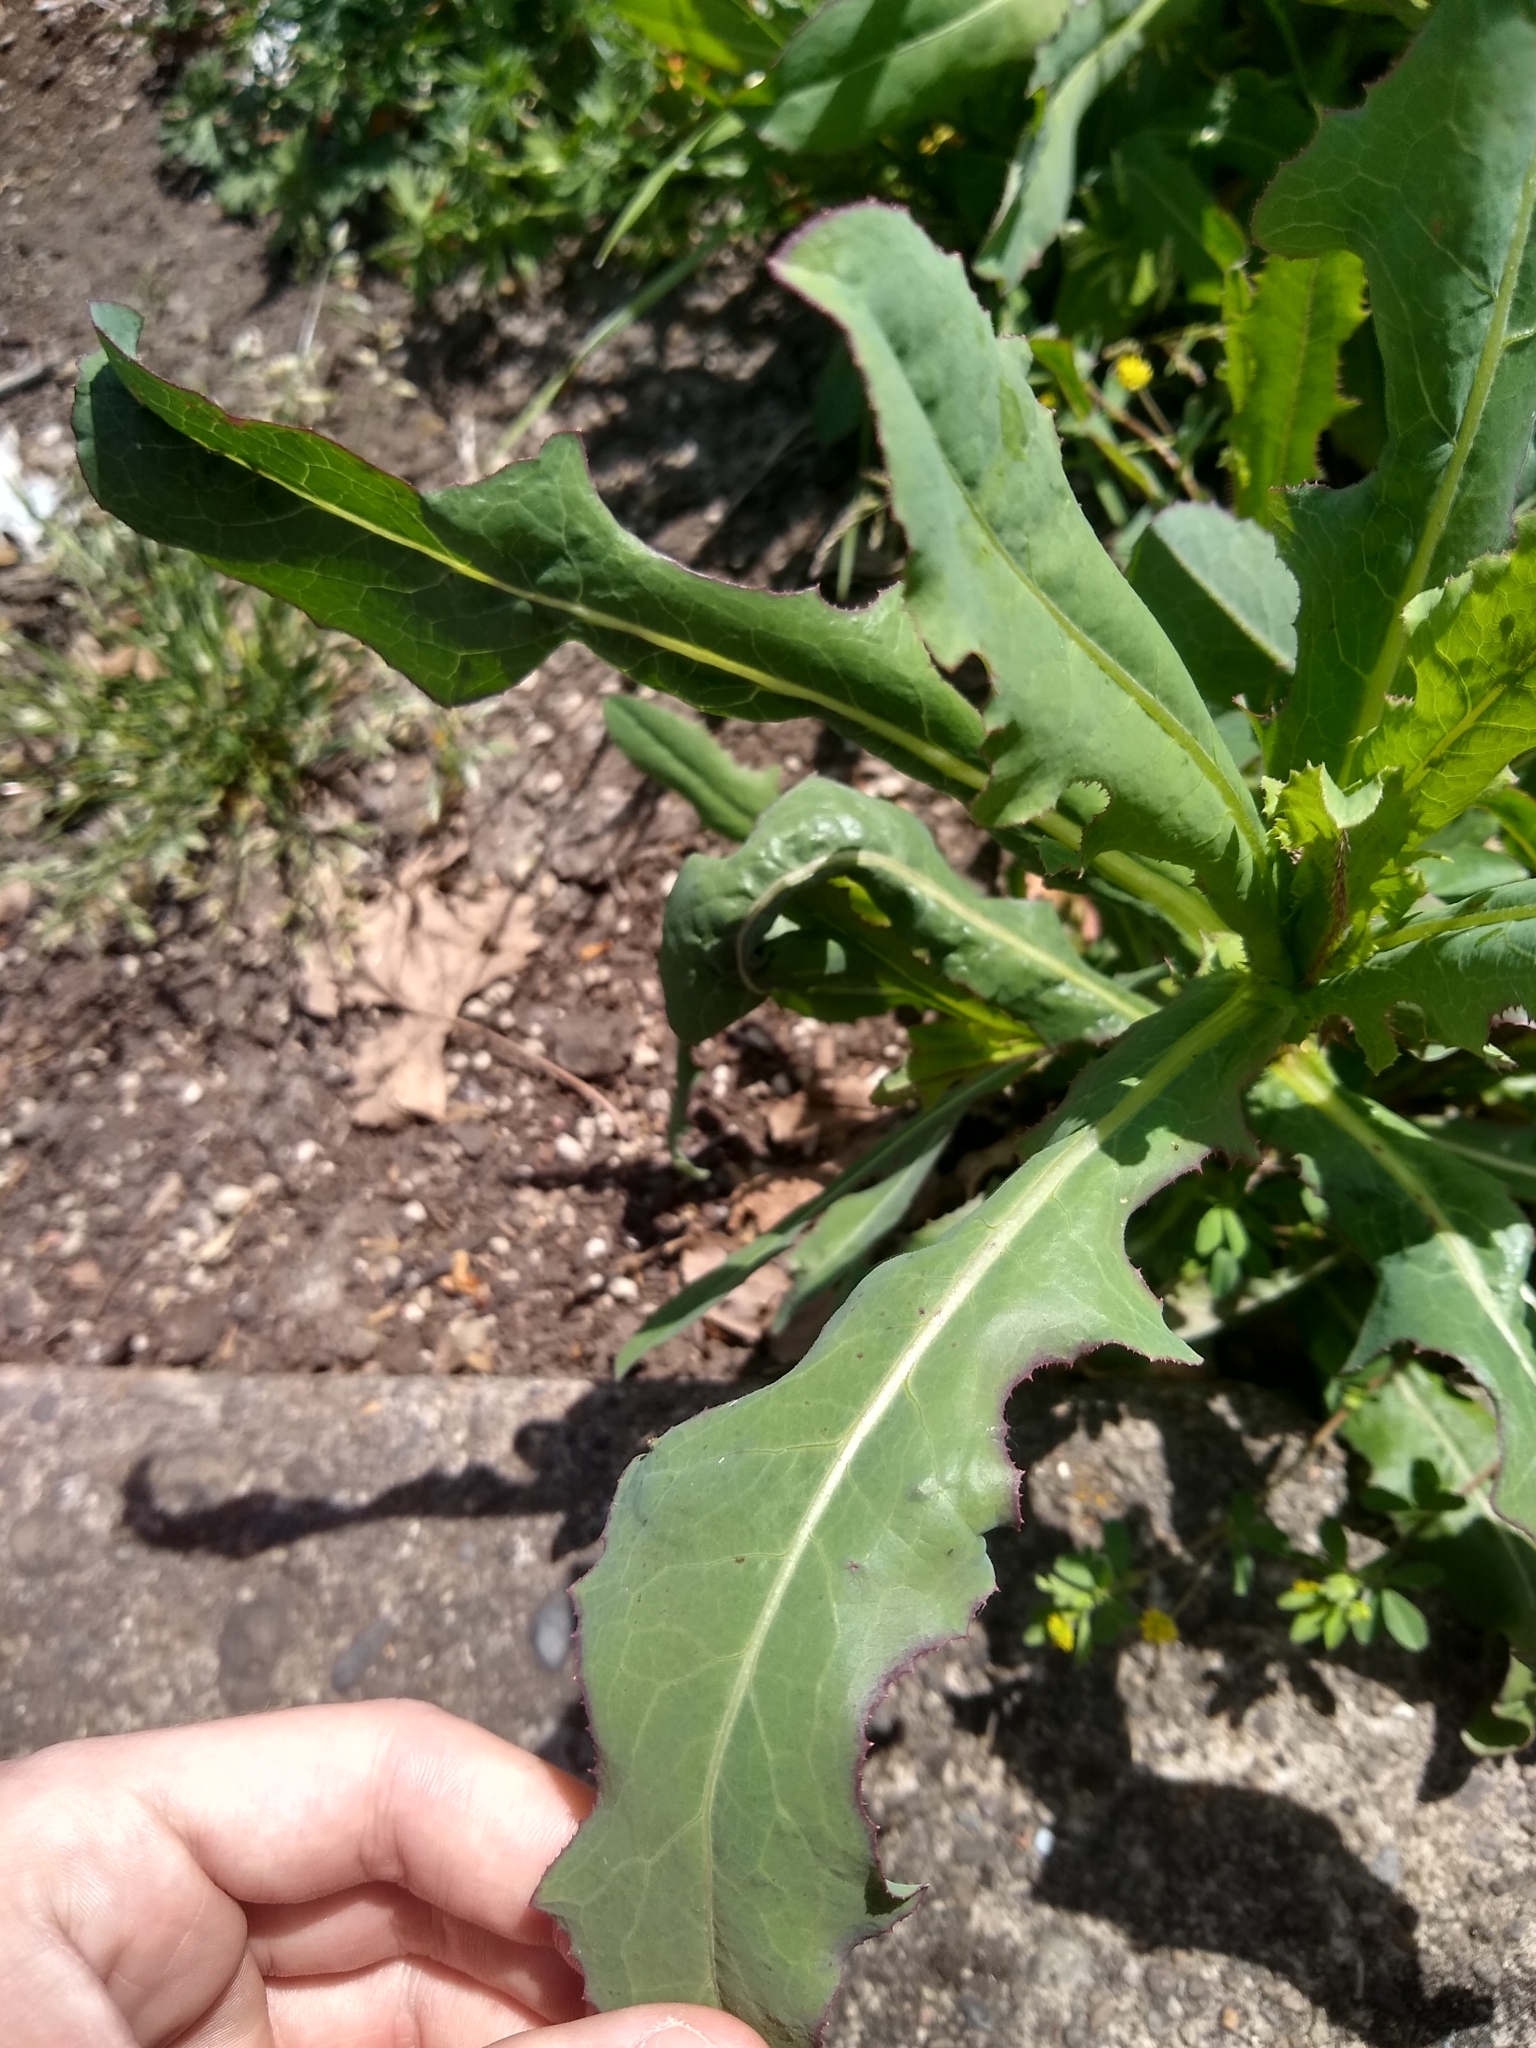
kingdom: Plantae
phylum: Tracheophyta
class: Magnoliopsida
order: Asterales
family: Asteraceae
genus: Lactuca
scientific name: Lactuca serriola
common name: Prickly lettuce
